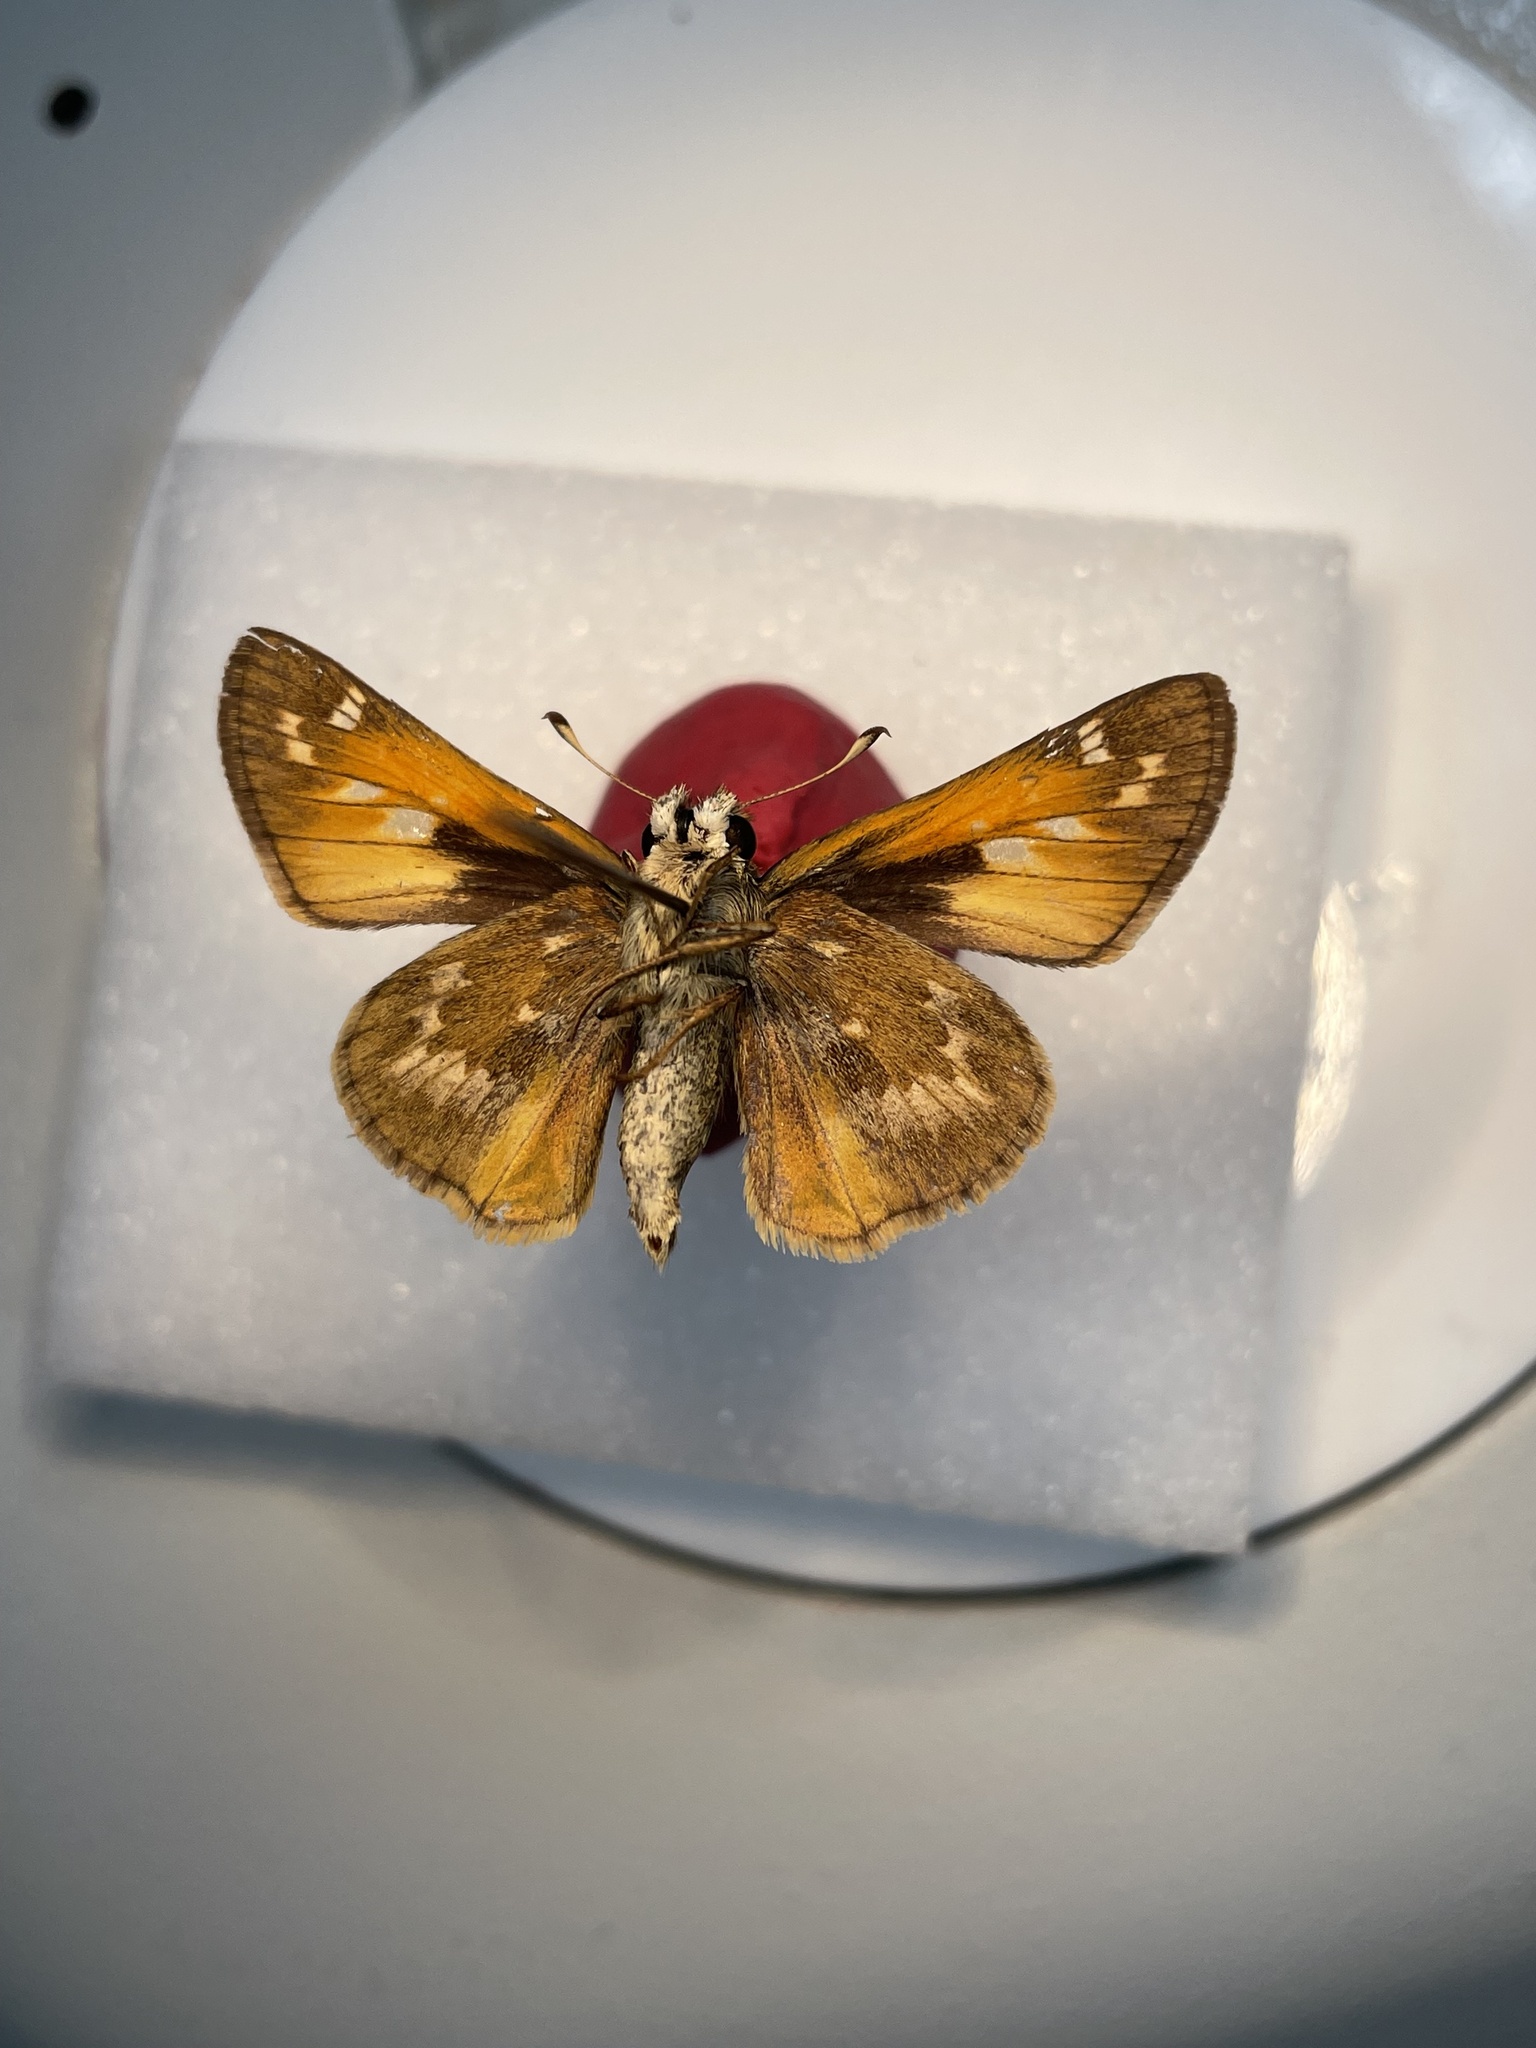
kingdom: Animalia
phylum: Arthropoda
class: Insecta
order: Lepidoptera
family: Hesperiidae
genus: Atalopedes
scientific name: Atalopedes
